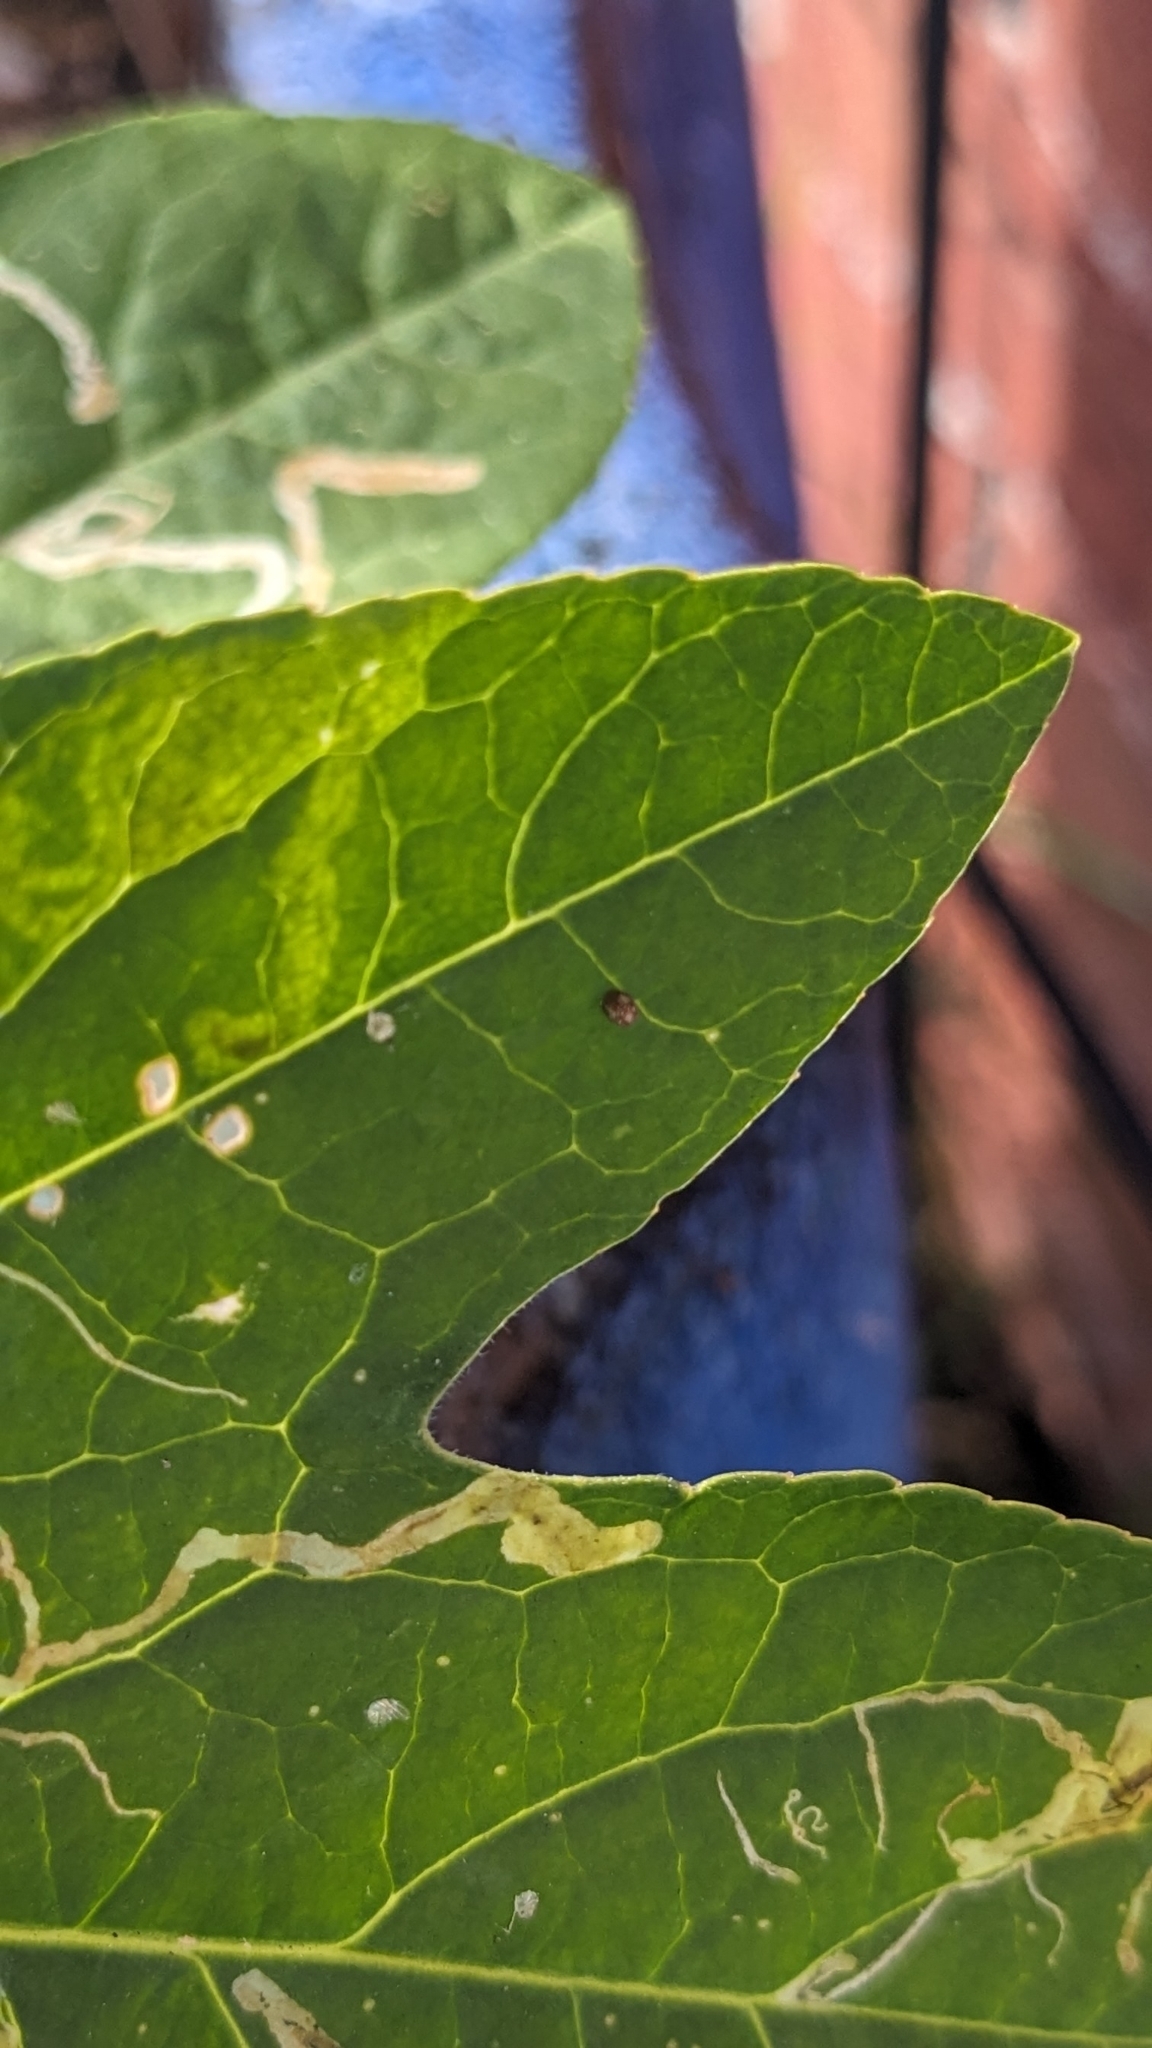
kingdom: Animalia
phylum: Arthropoda
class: Insecta
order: Lepidoptera
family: Nymphalidae
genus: Dione
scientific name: Dione vanillae
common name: Gulf fritillary
